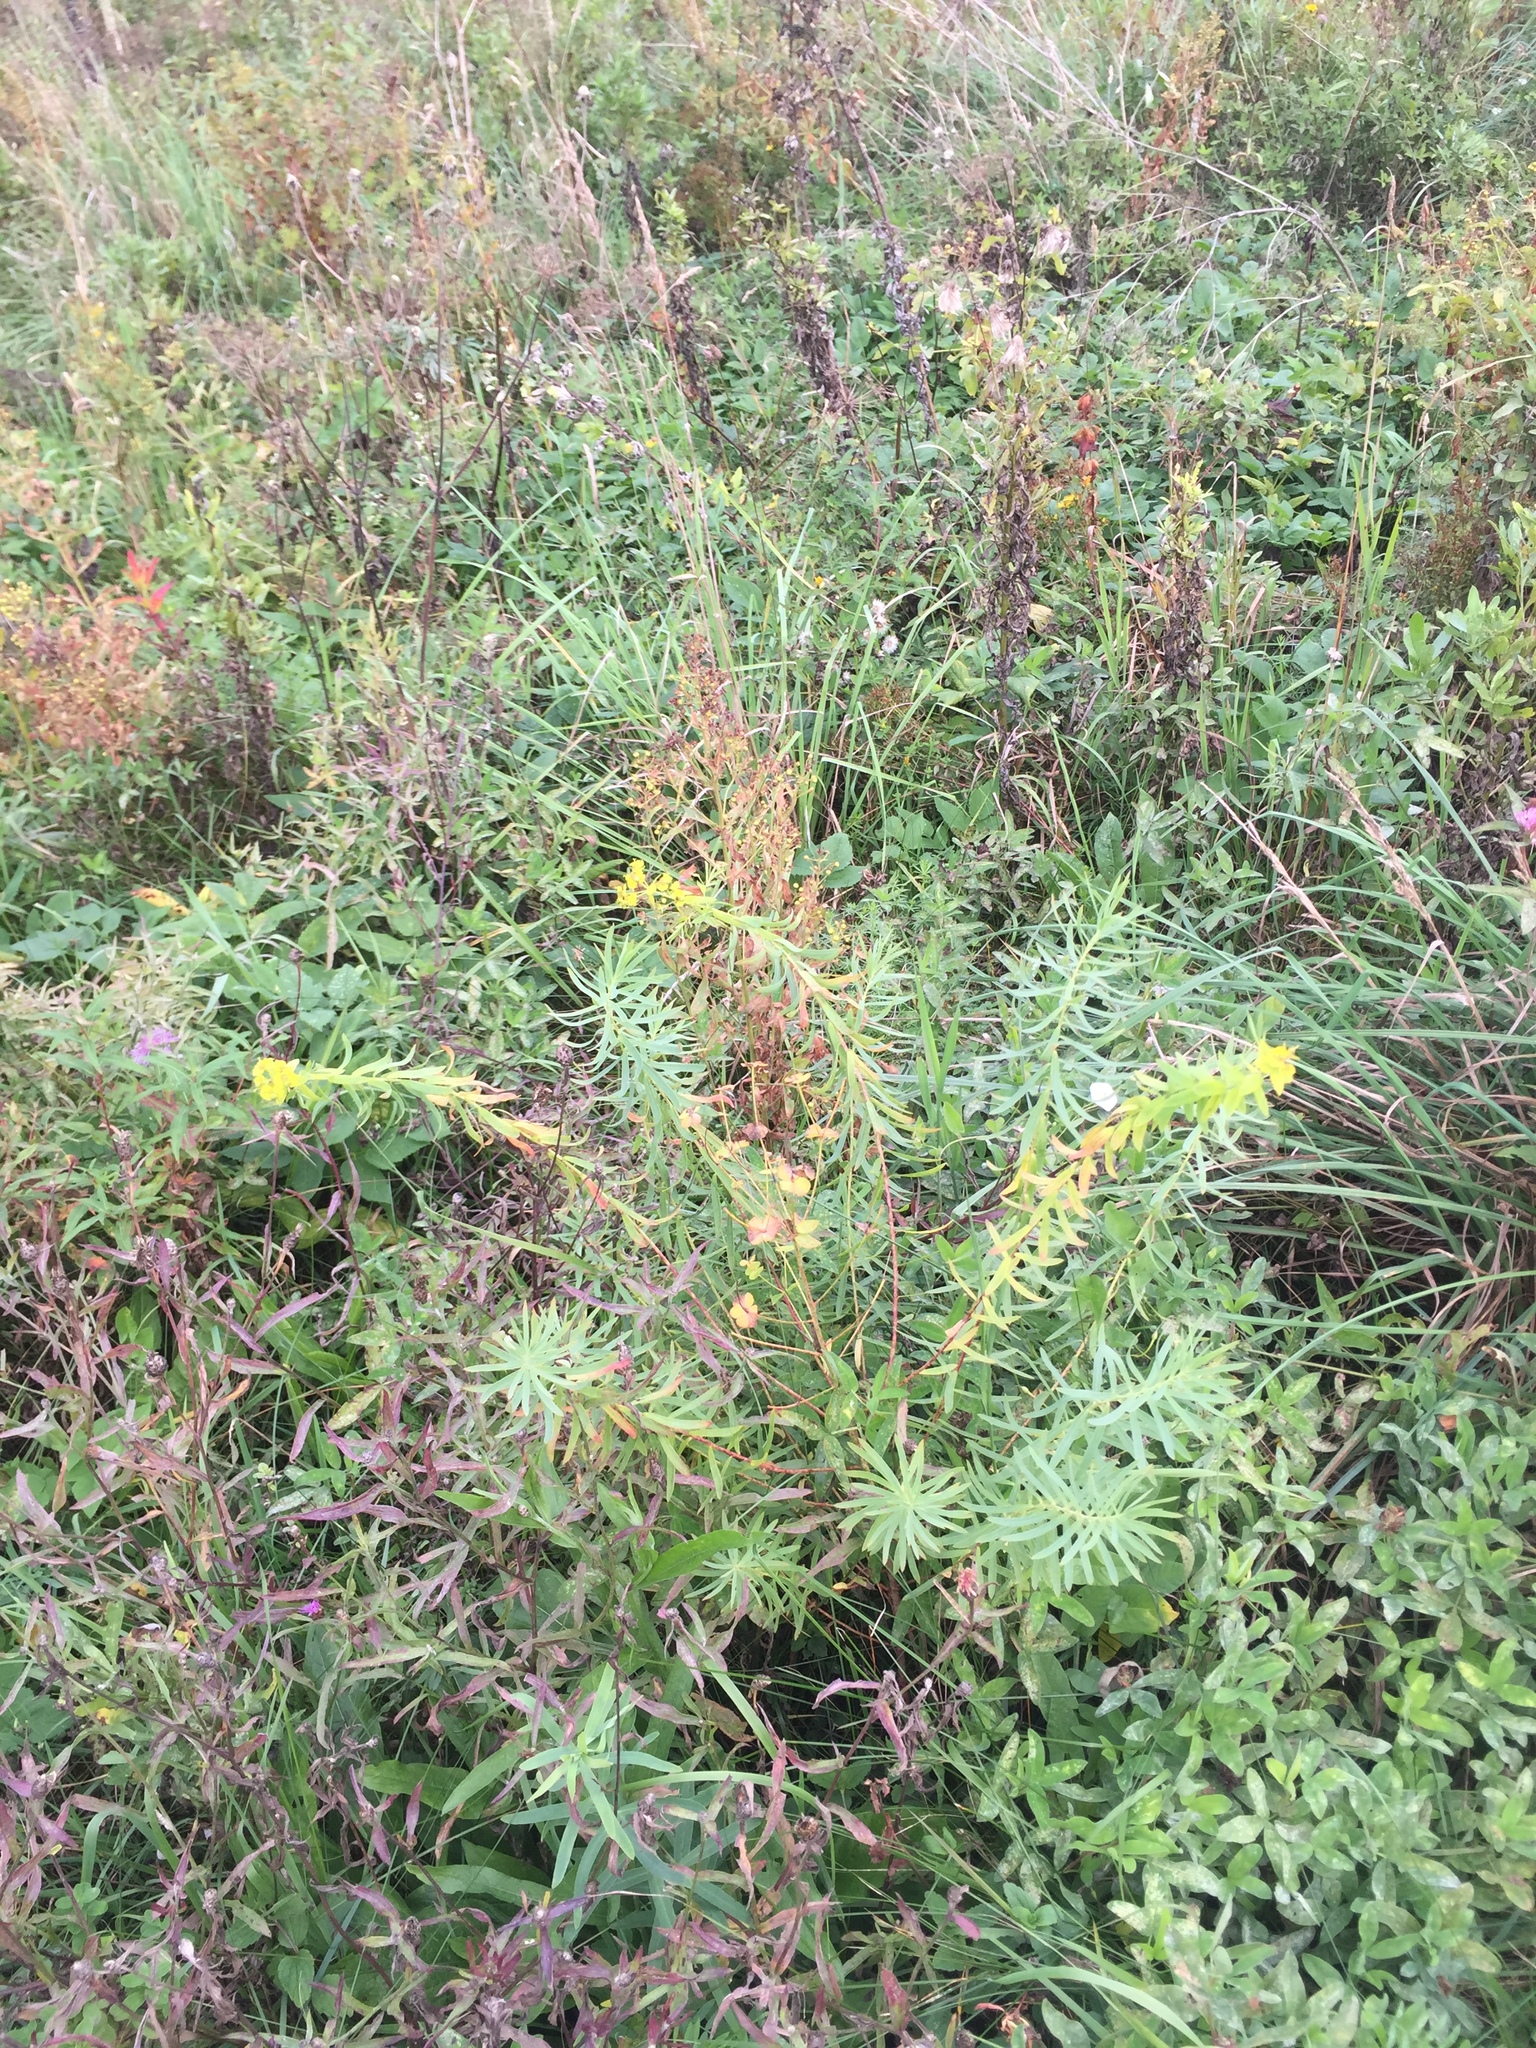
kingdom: Plantae
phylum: Tracheophyta
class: Magnoliopsida
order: Malpighiales
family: Euphorbiaceae
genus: Euphorbia
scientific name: Euphorbia virgata
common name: Leafy spurge
